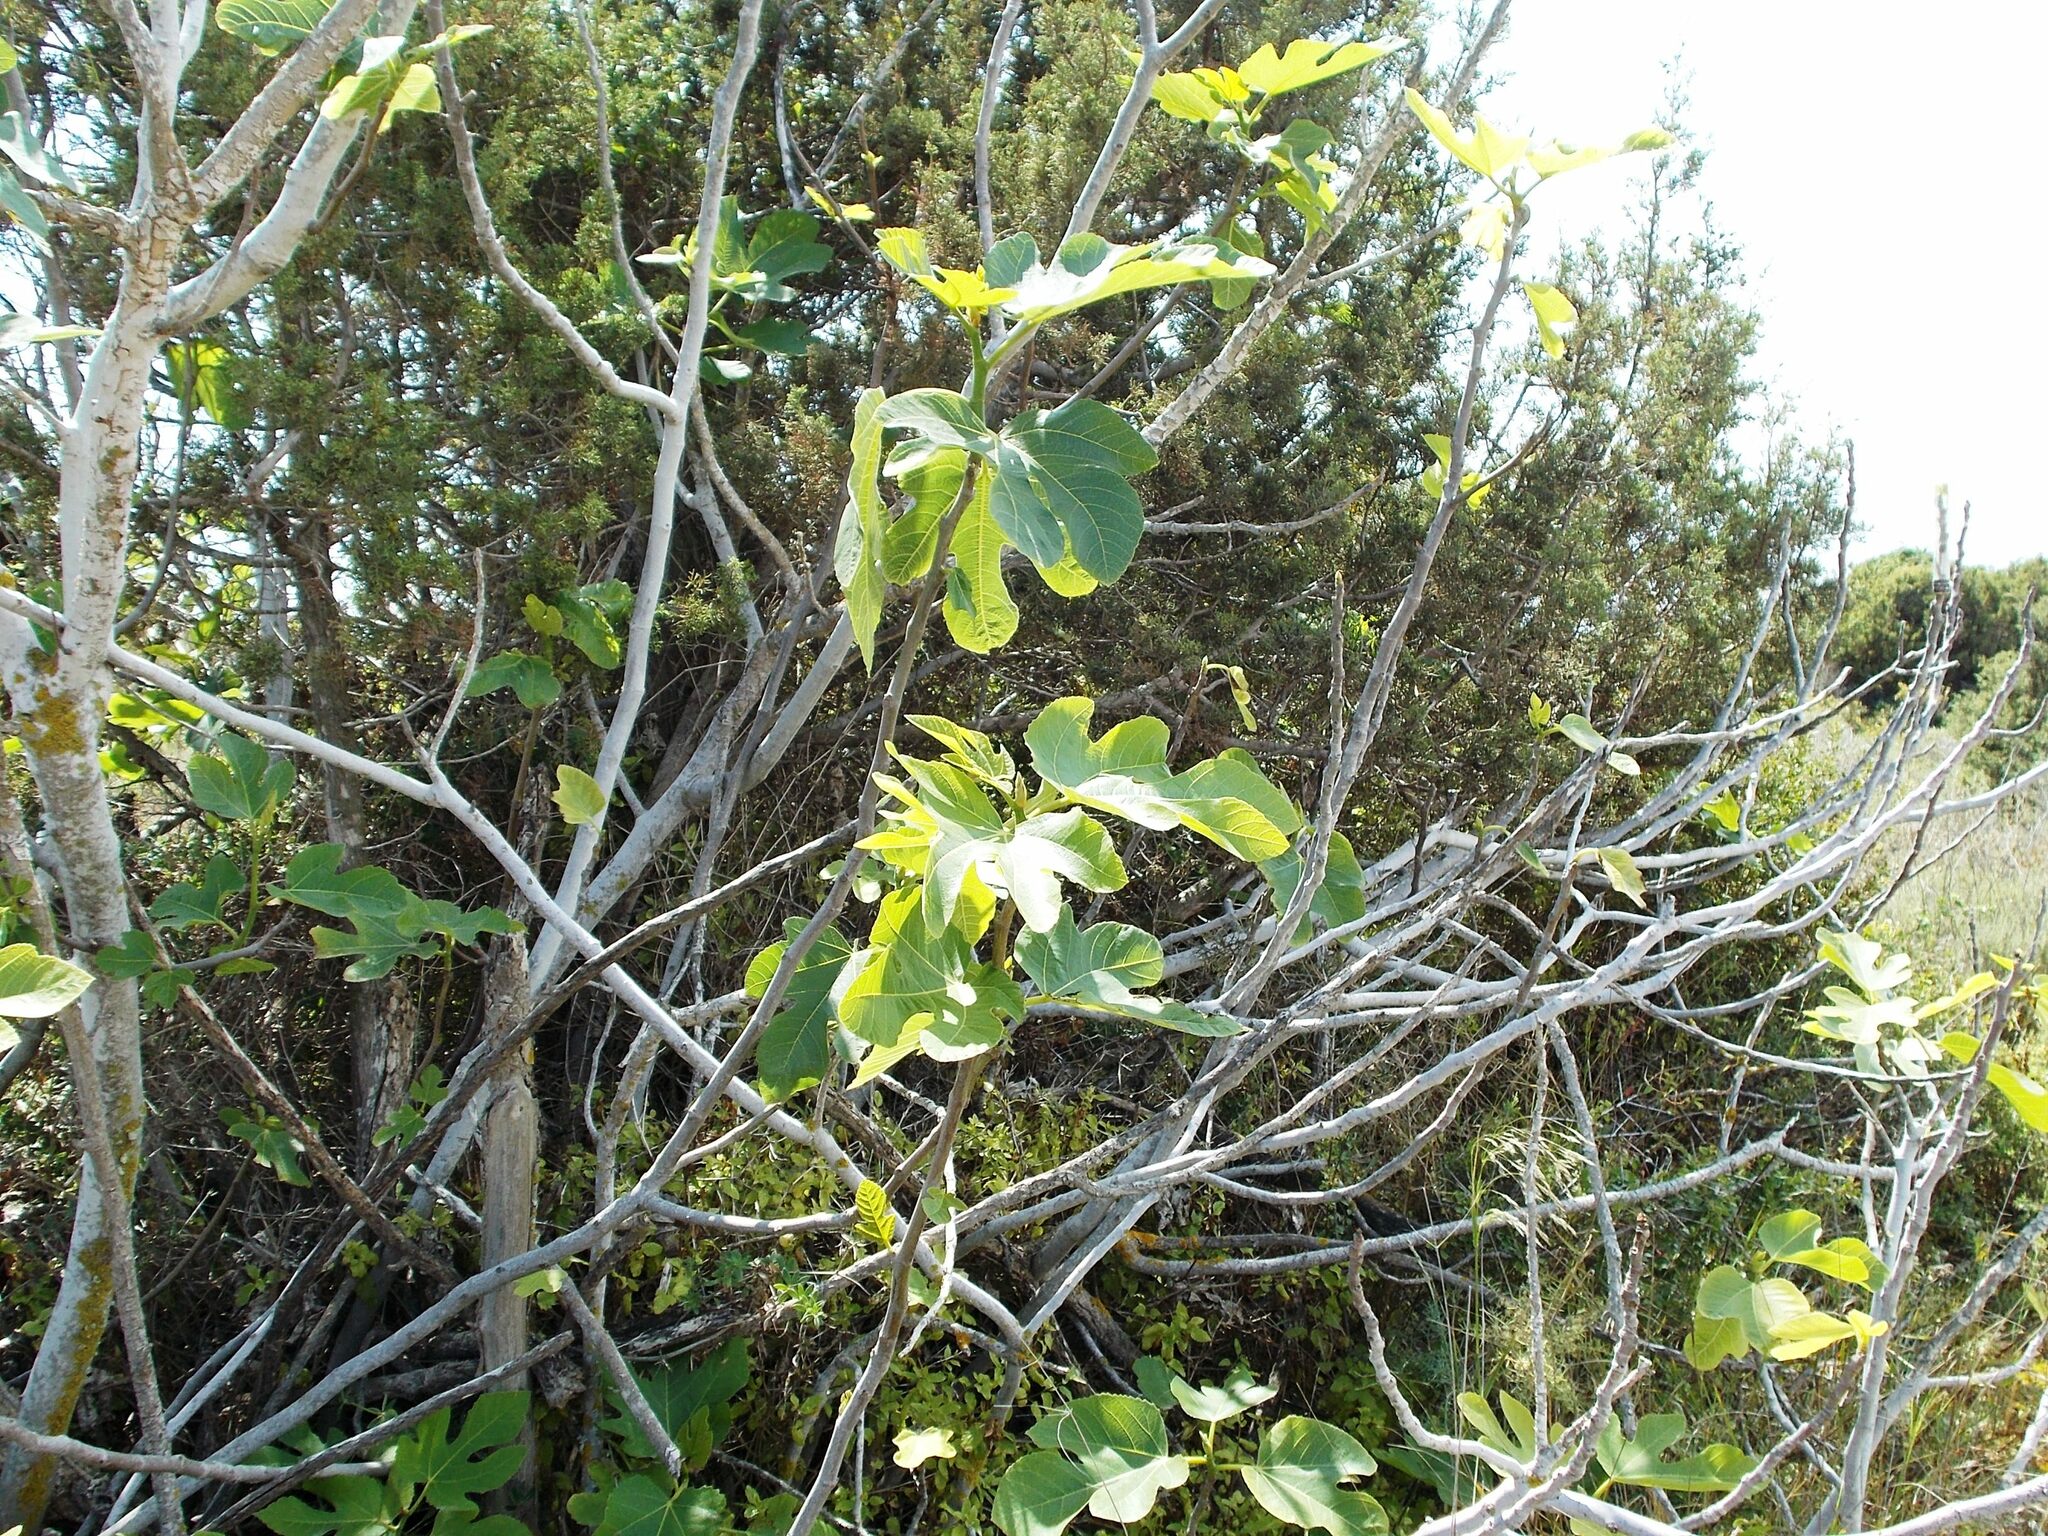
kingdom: Plantae
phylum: Tracheophyta
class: Magnoliopsida
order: Rosales
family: Moraceae
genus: Ficus
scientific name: Ficus carica
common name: Fig
